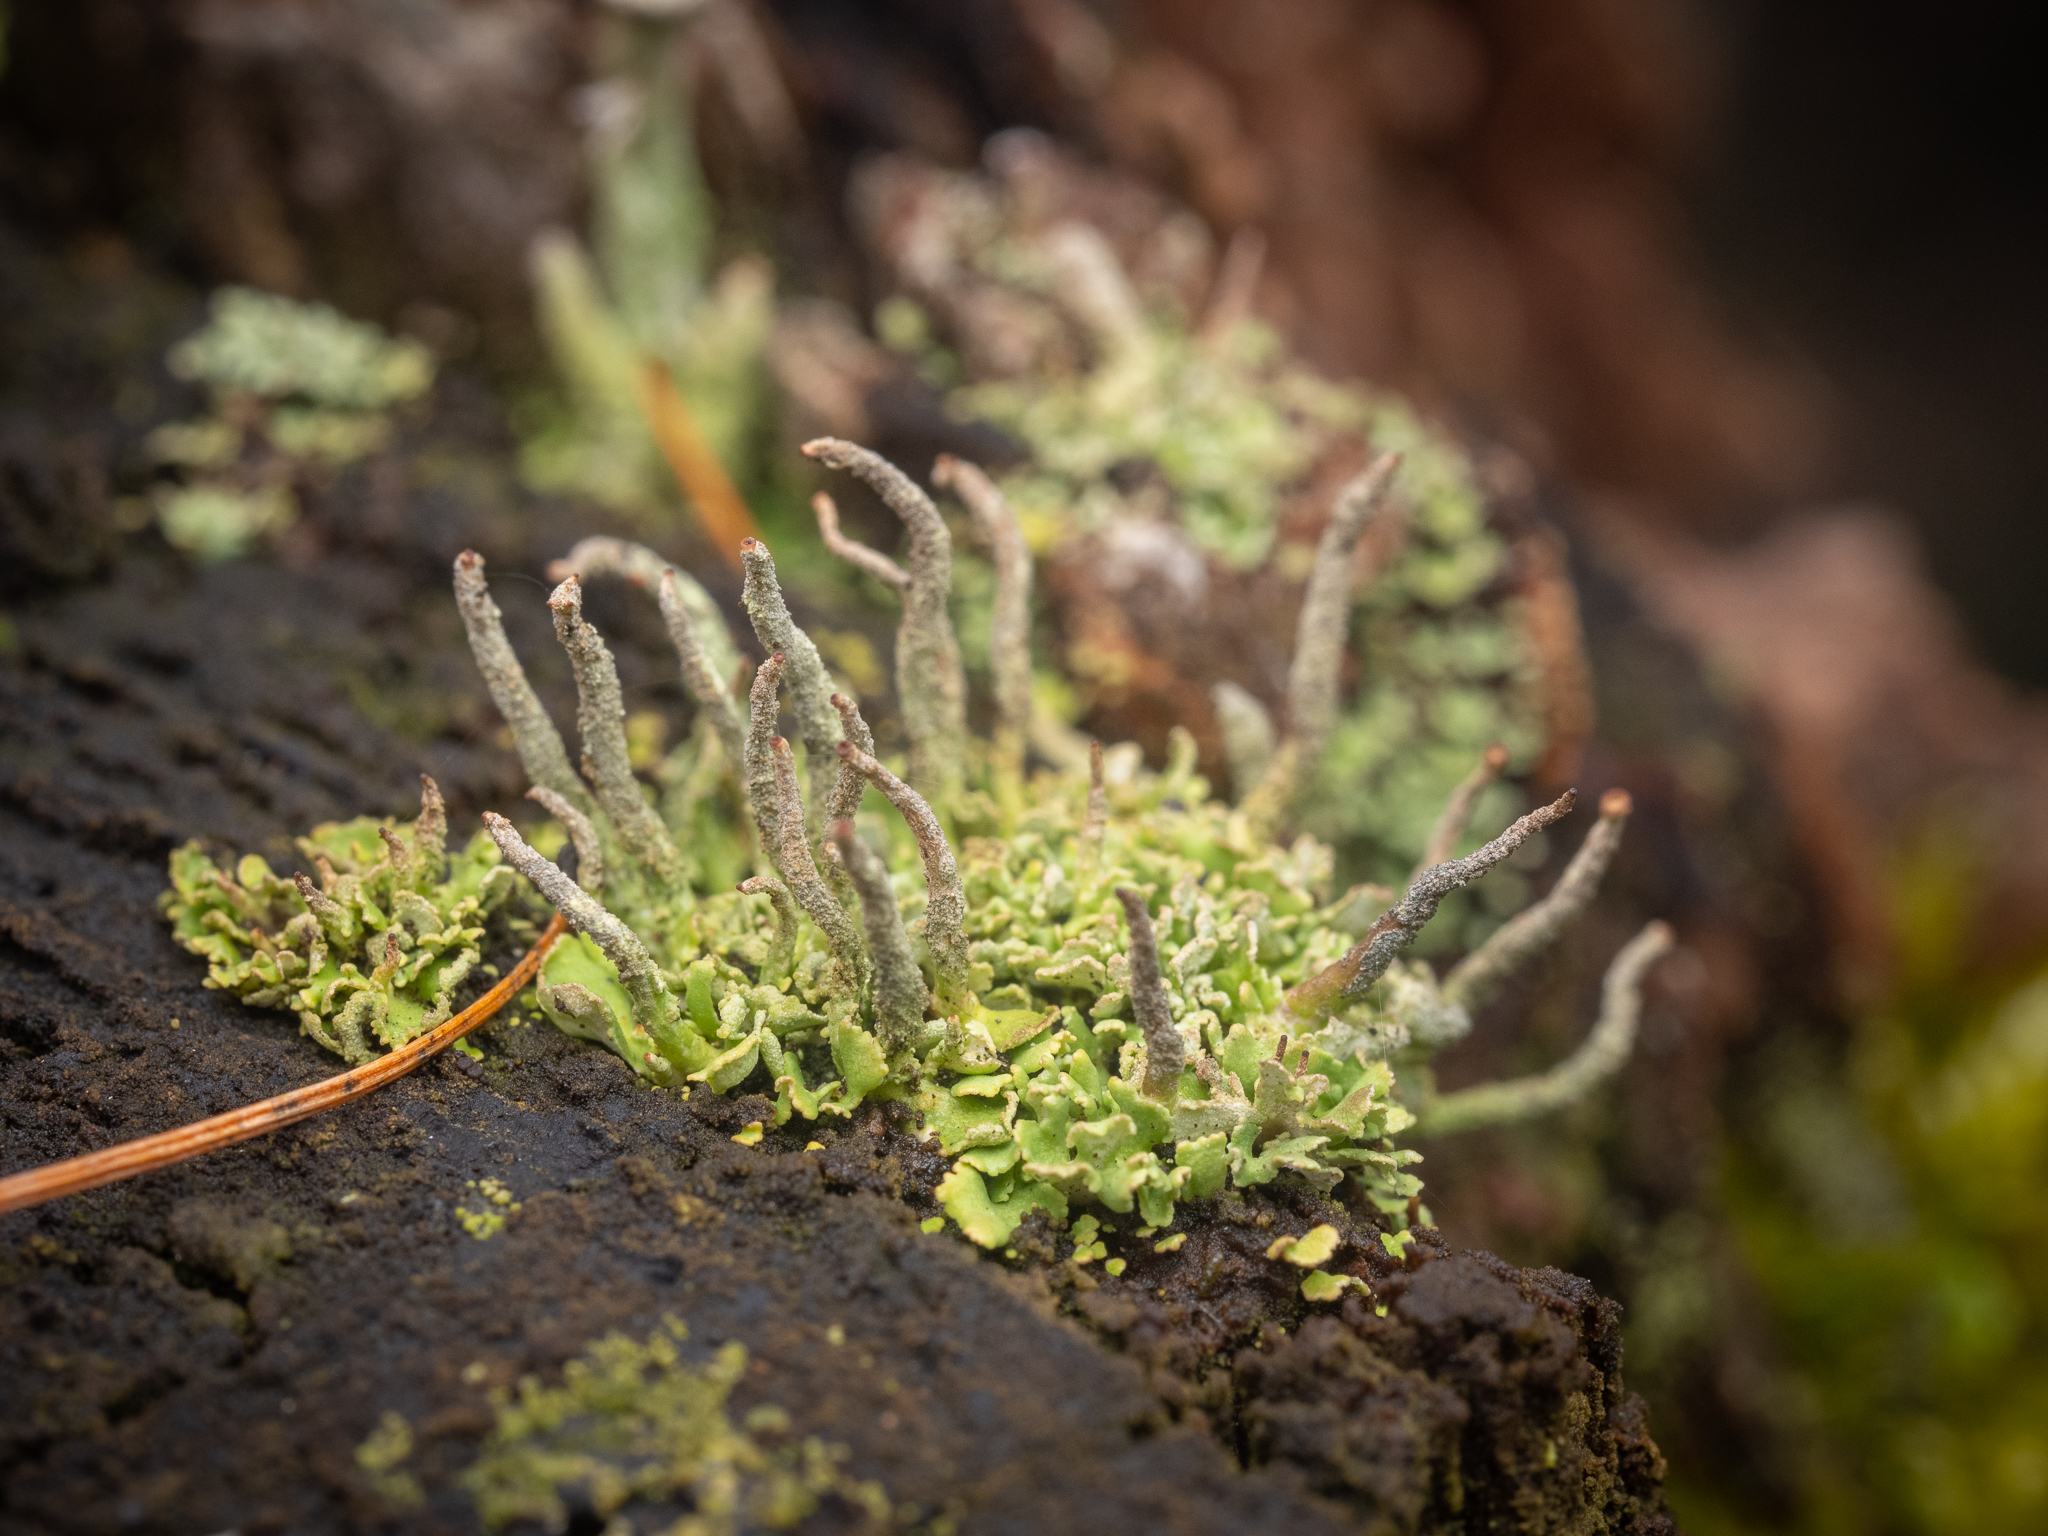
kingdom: Fungi
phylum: Ascomycota
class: Lecanoromycetes
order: Lecanorales
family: Cladoniaceae
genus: Cladonia
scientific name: Cladonia coniocraea
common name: Common powderhorn
